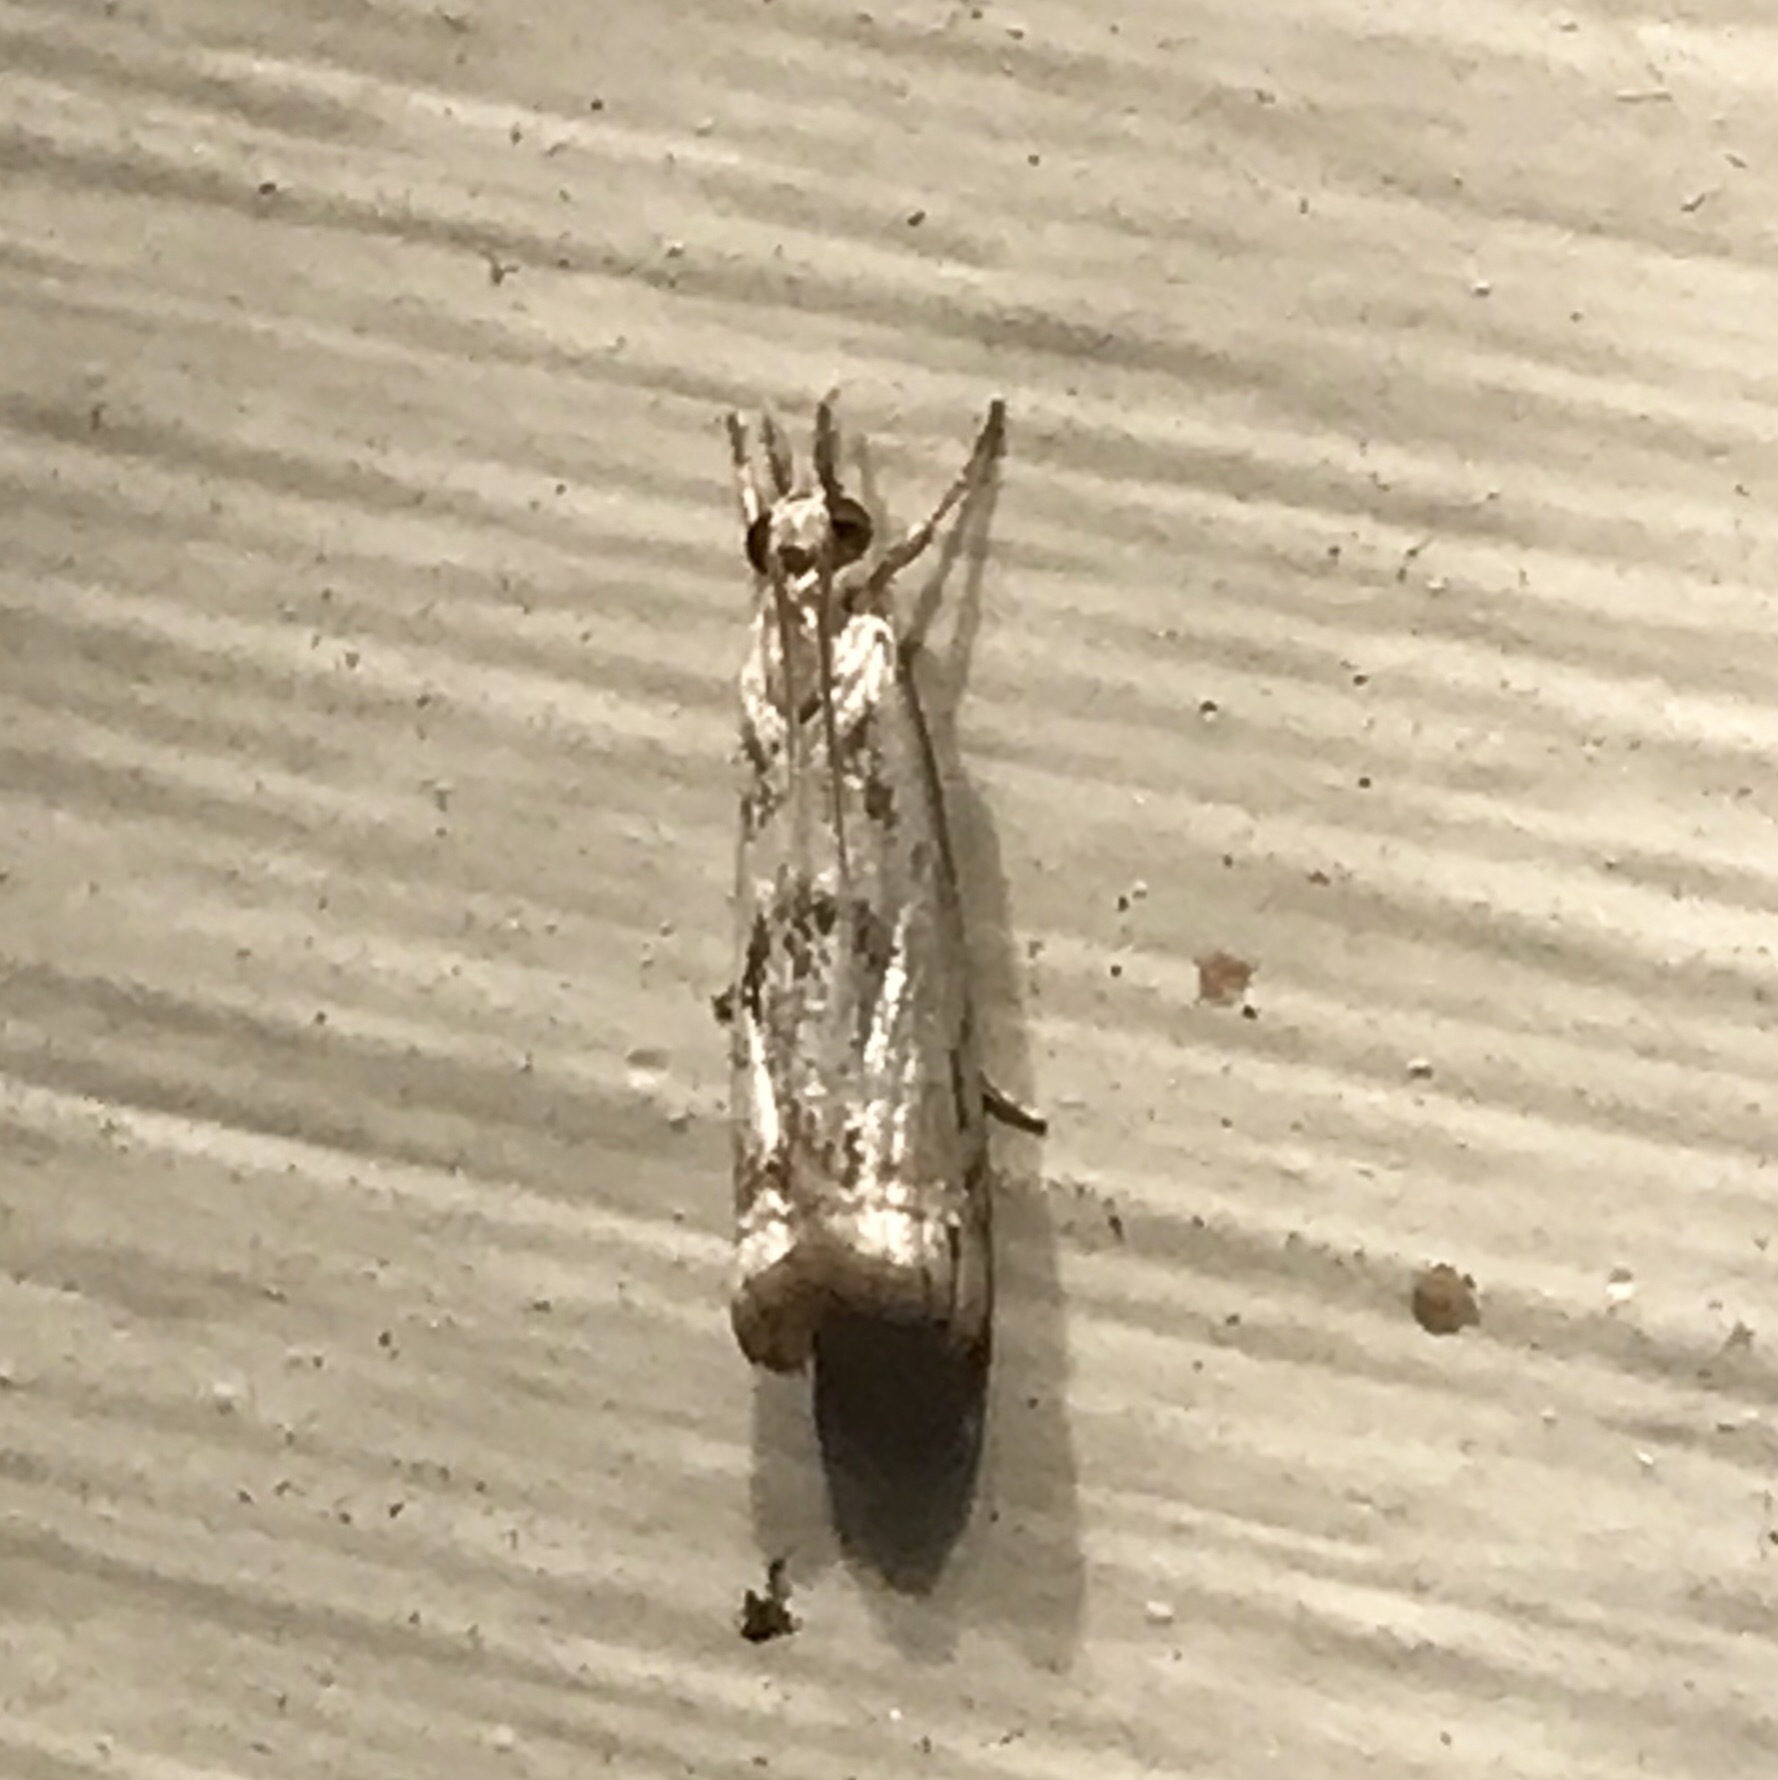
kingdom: Animalia
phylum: Arthropoda
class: Insecta
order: Lepidoptera
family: Crambidae
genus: Microcrambus
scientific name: Microcrambus elegans
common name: Elegant grass-veneer
